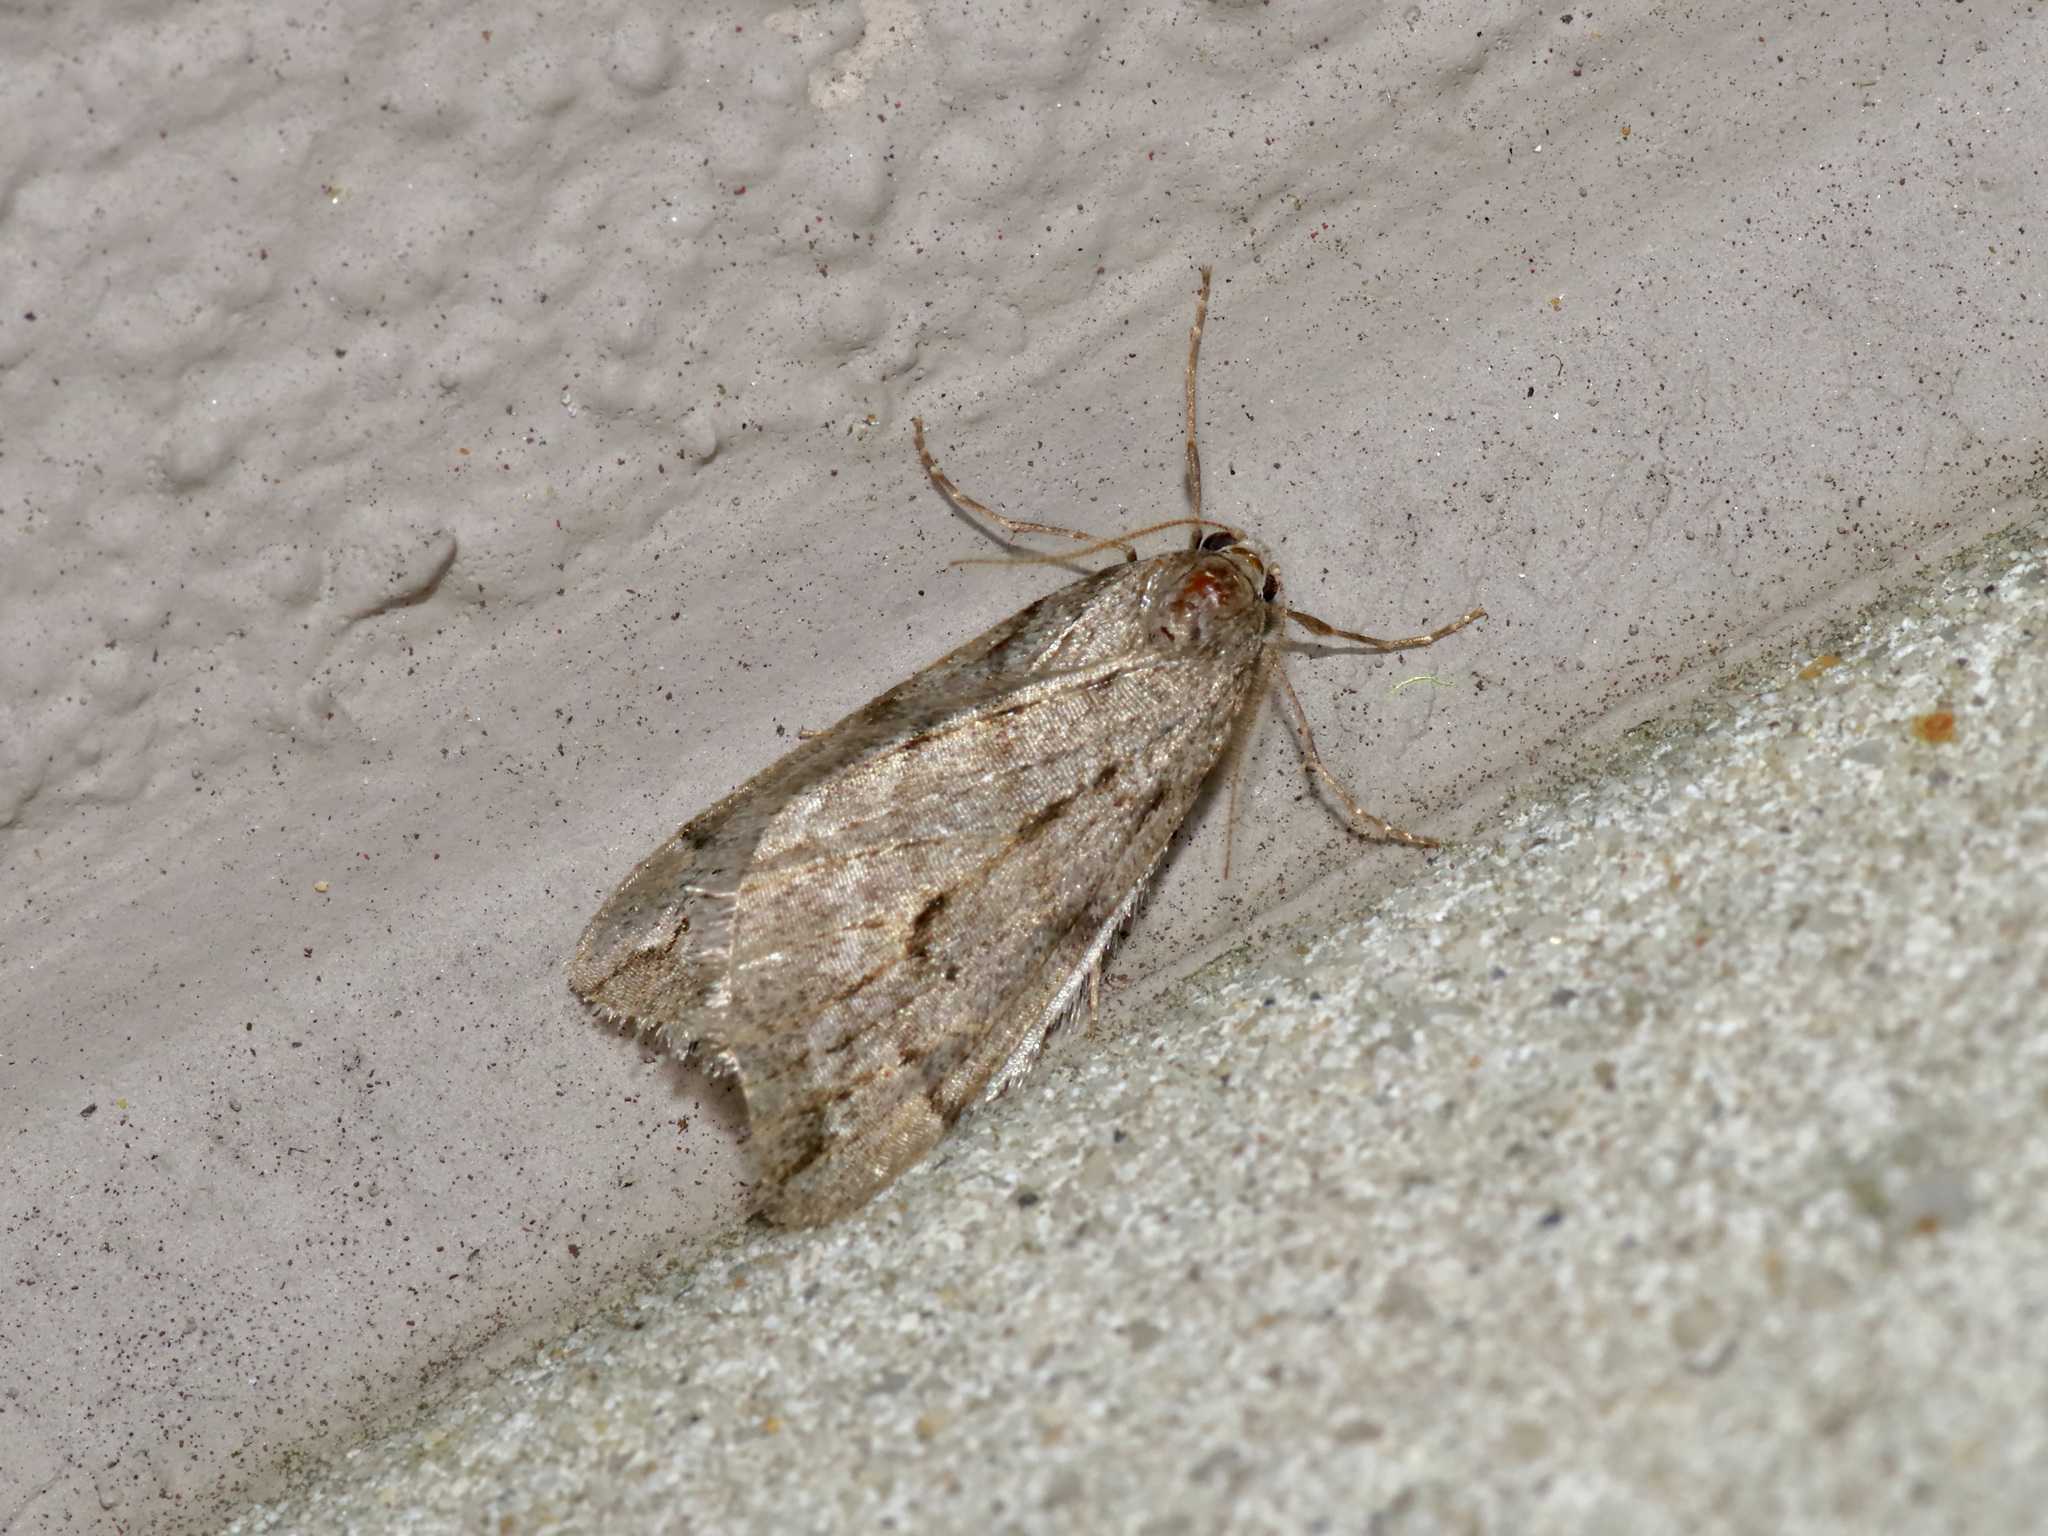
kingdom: Animalia
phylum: Arthropoda
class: Insecta
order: Lepidoptera
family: Geometridae
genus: Paleacrita
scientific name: Paleacrita vernata
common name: Spring cankerworm
